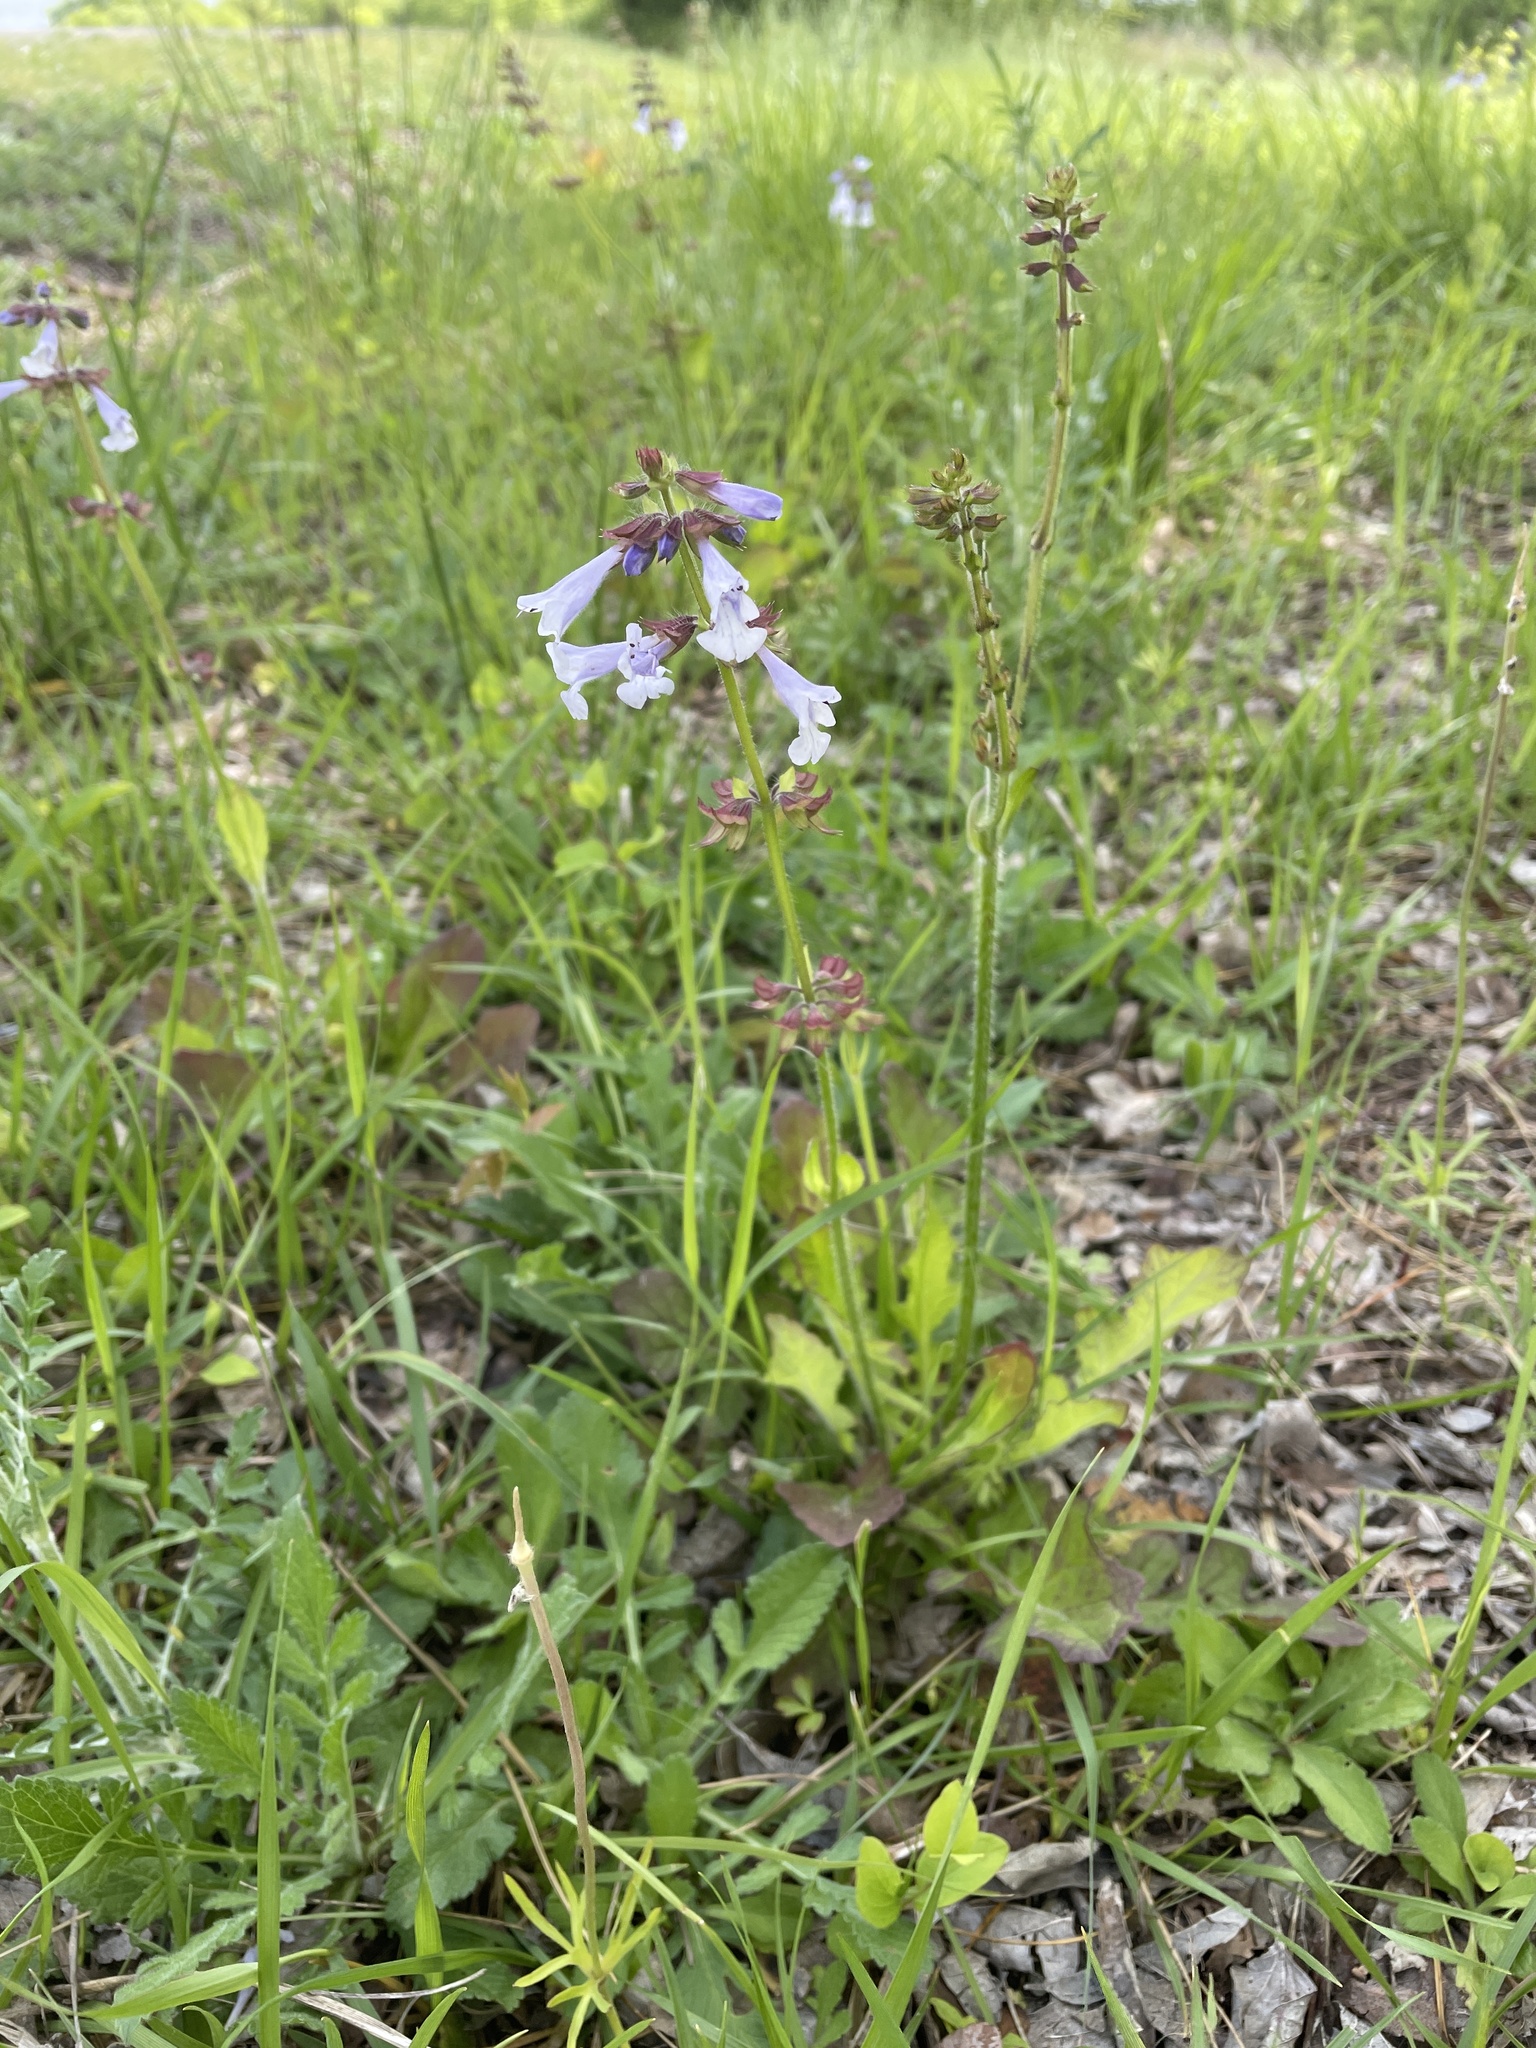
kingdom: Plantae
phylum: Tracheophyta
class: Magnoliopsida
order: Lamiales
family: Lamiaceae
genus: Salvia
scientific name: Salvia lyrata
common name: Cancerweed
